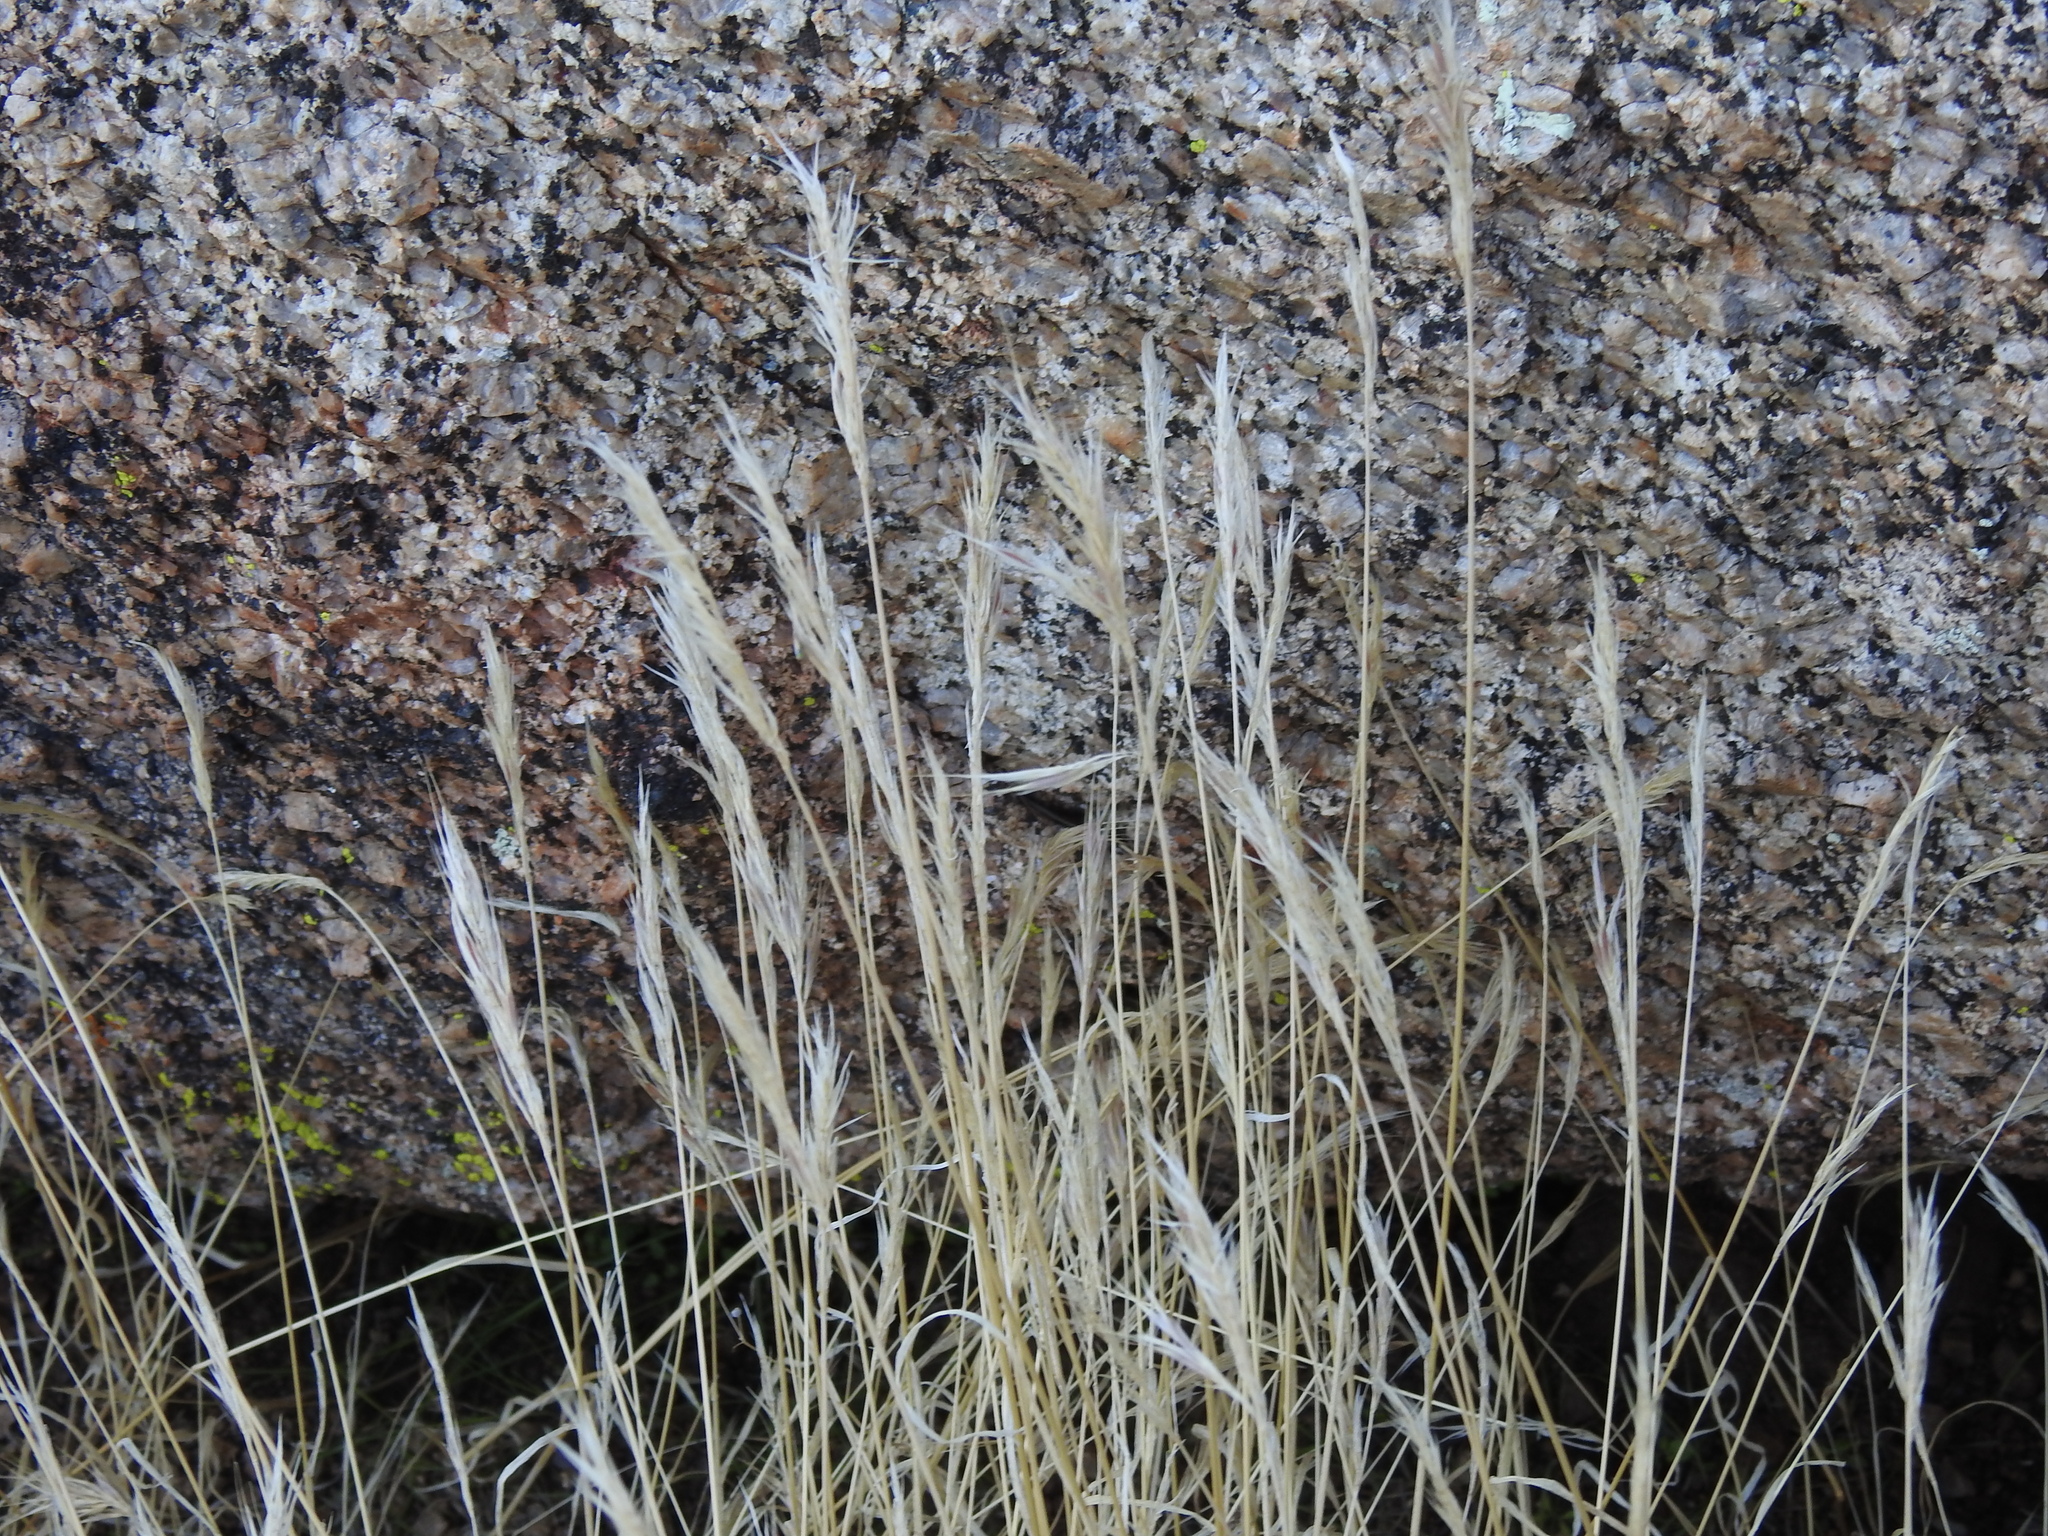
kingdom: Plantae
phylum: Tracheophyta
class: Liliopsida
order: Poales
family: Poaceae
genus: Bromus
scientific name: Bromus rubens
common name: Red brome
